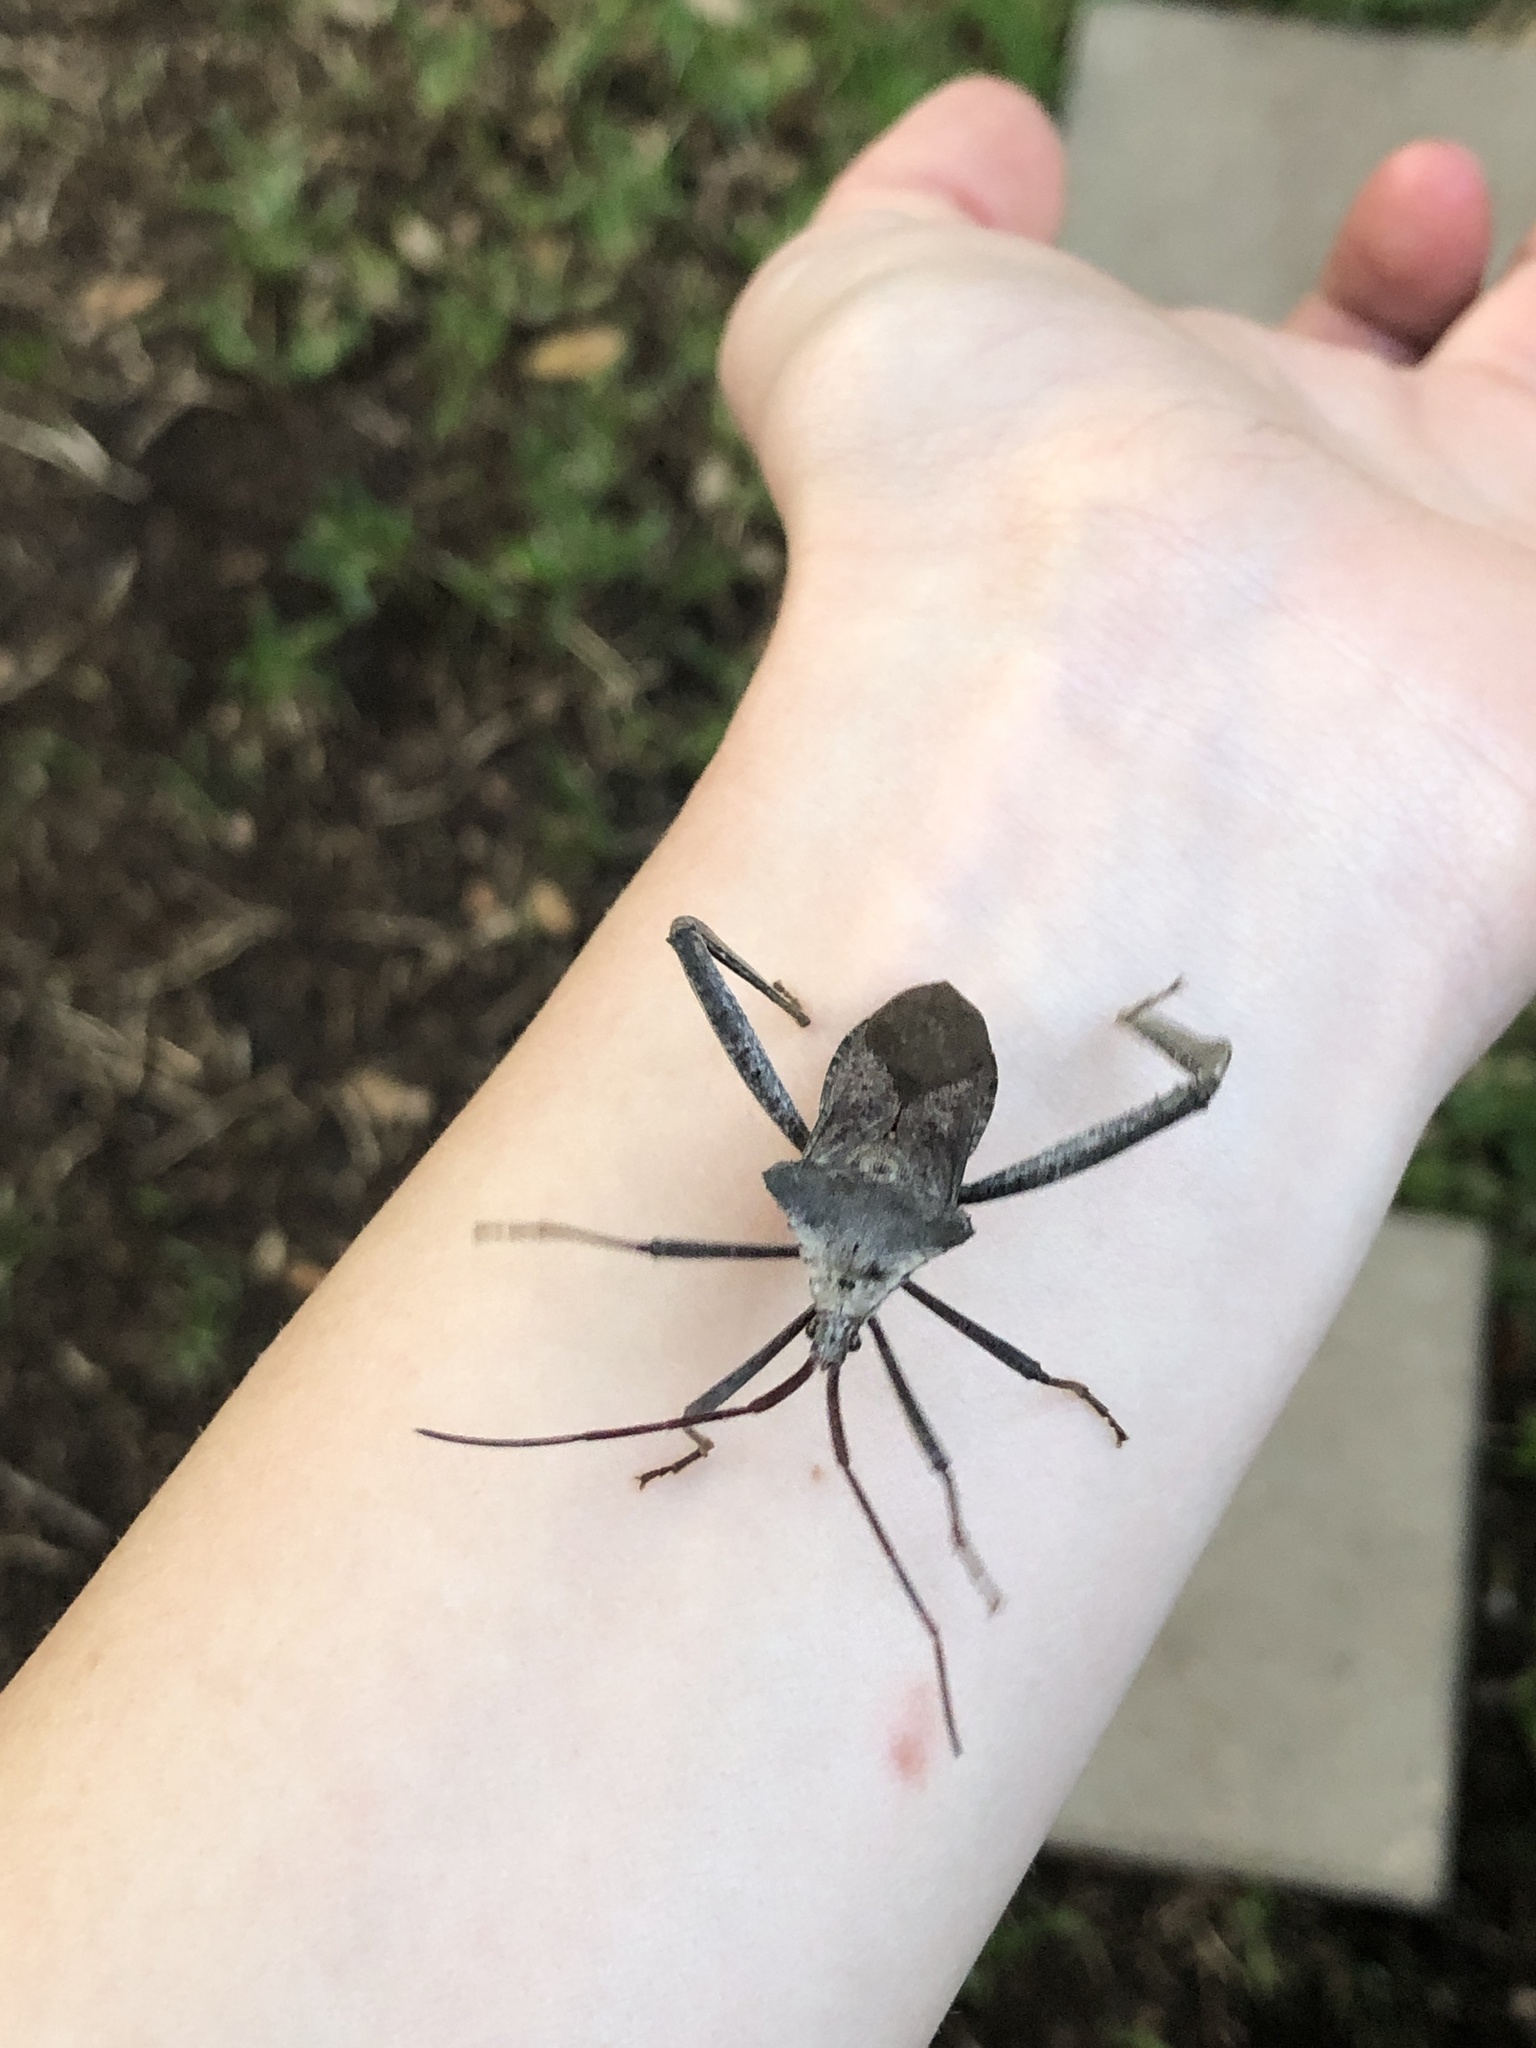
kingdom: Animalia
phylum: Arthropoda
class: Insecta
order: Hemiptera
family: Coreidae
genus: Acanthocephala
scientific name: Acanthocephala declivis
